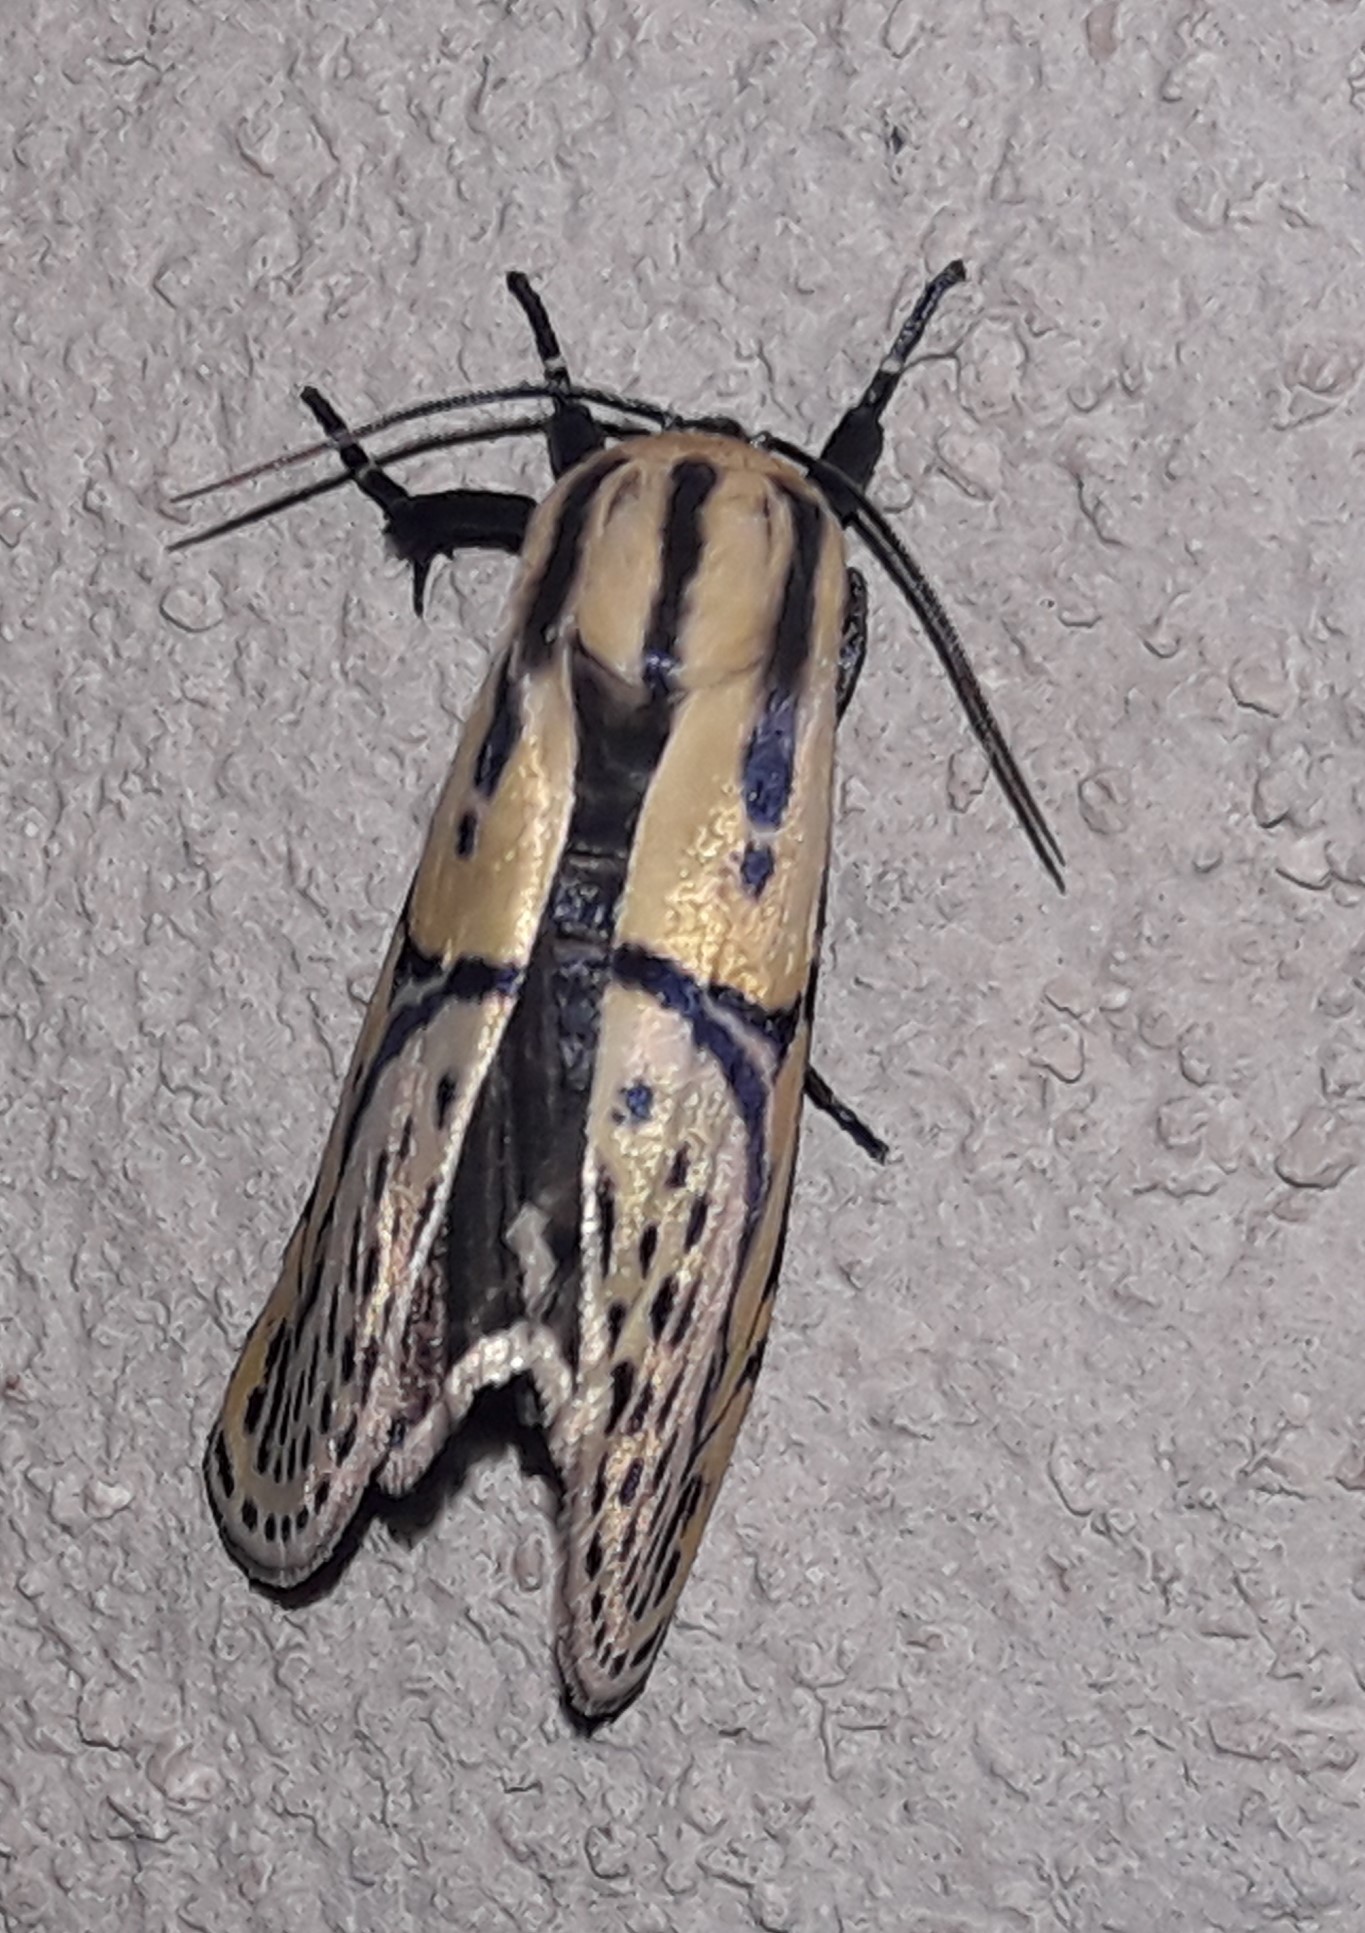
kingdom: Animalia
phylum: Arthropoda
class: Insecta
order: Lepidoptera
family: Erebidae
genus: Diphthera
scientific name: Diphthera festiva
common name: Hieroglyphic moth
